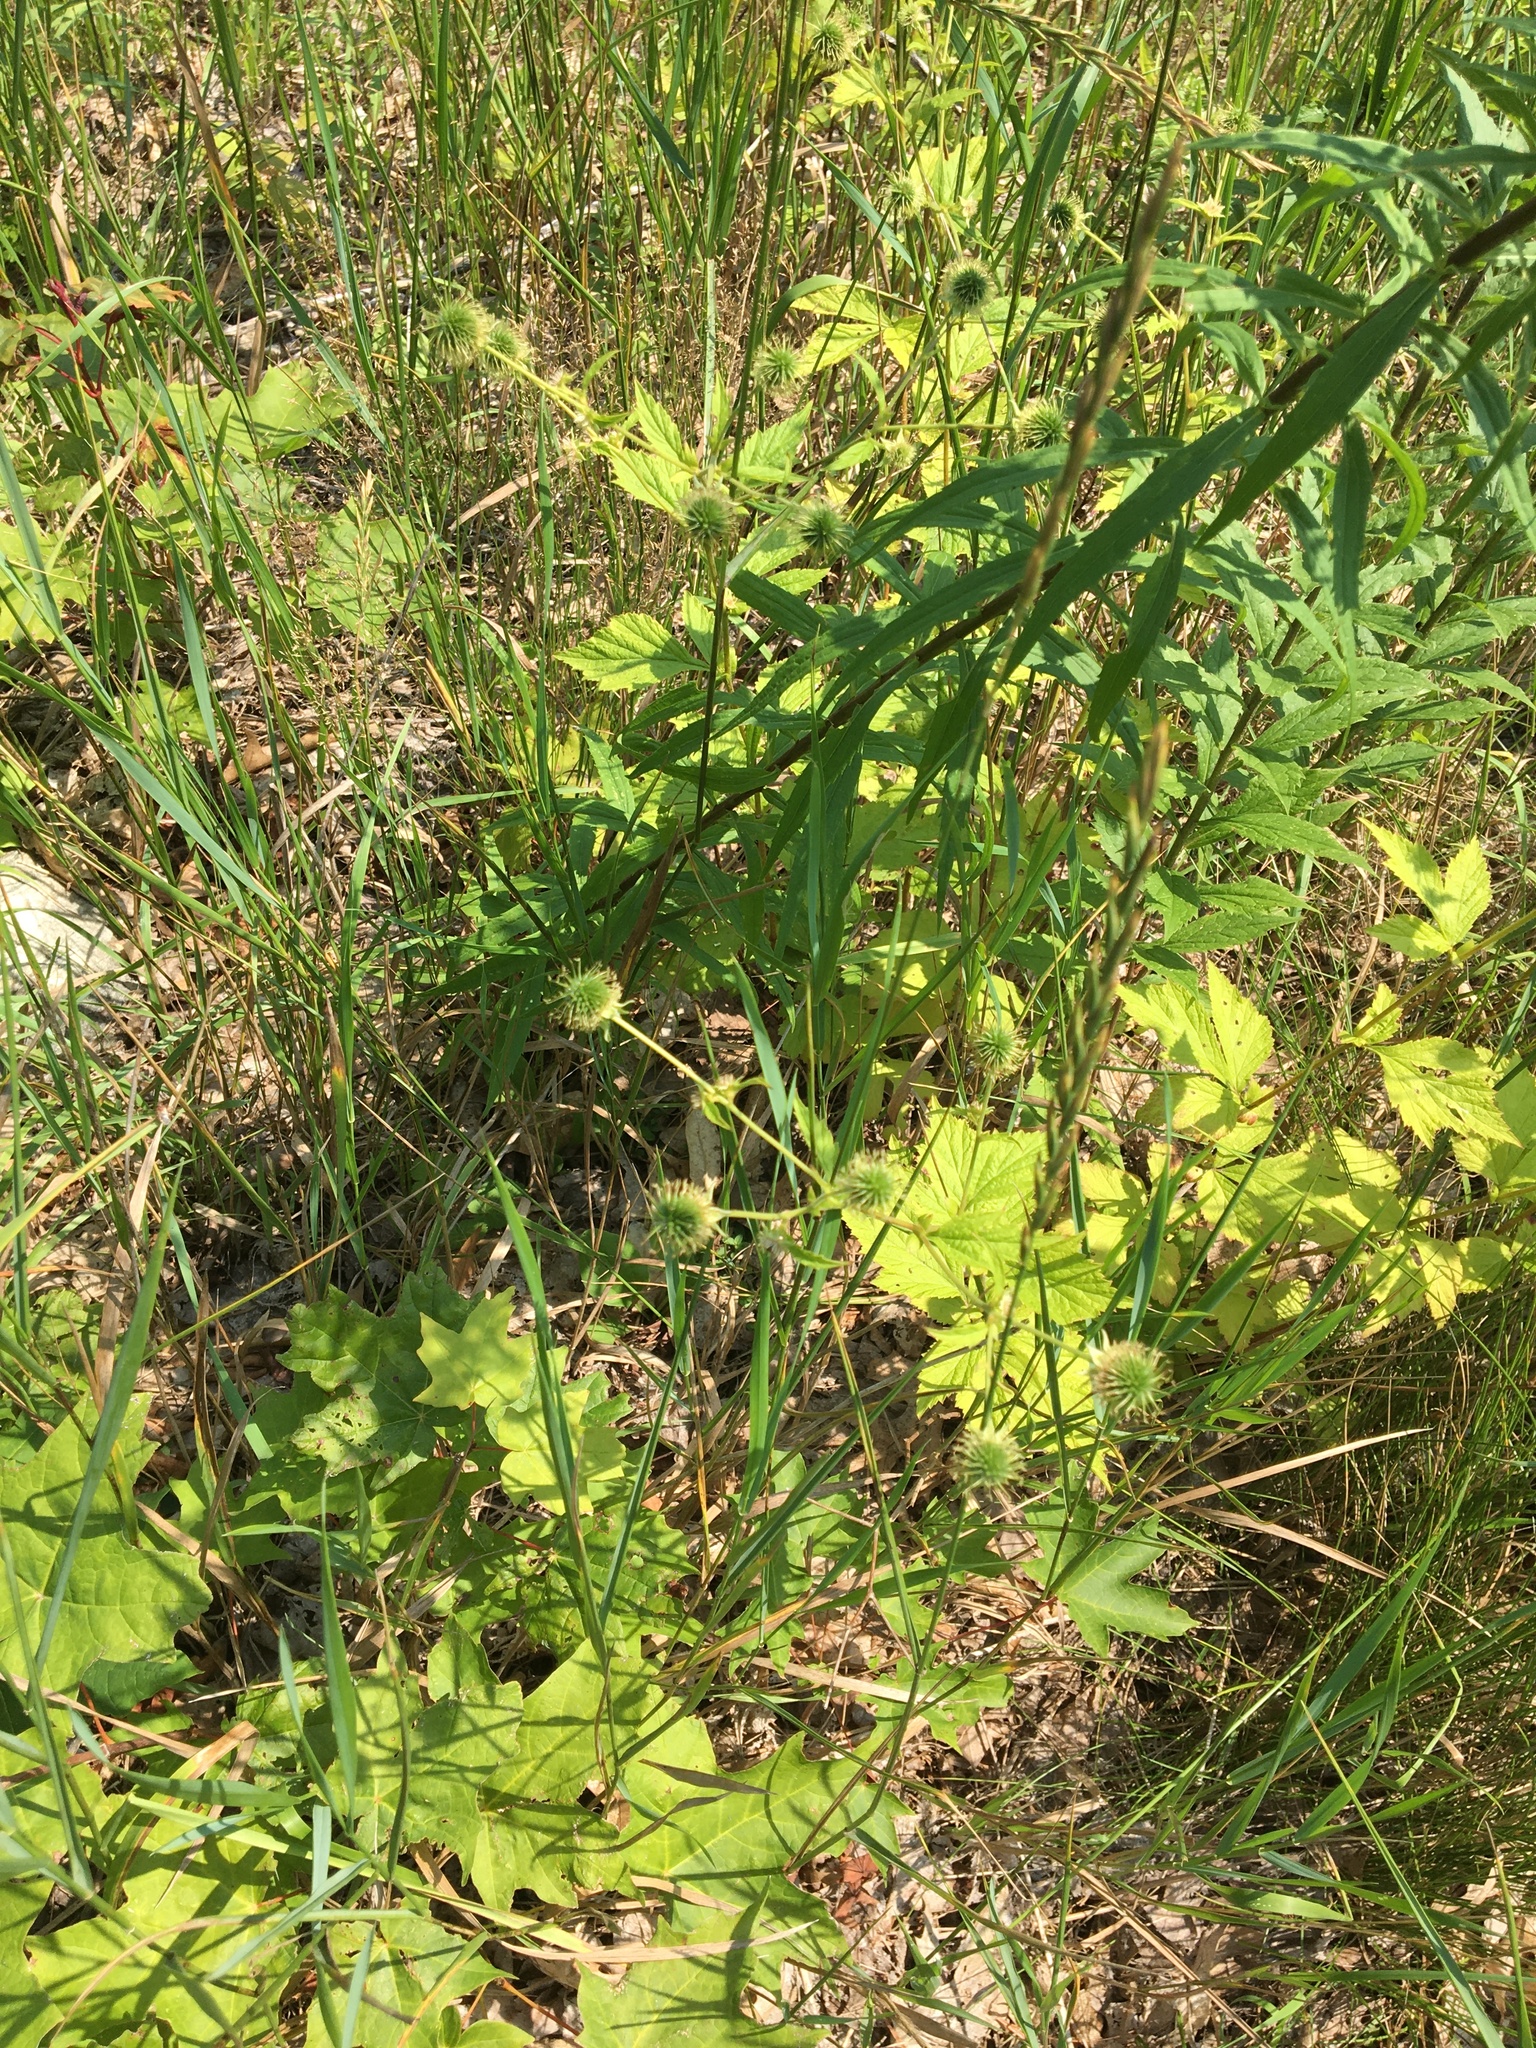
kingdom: Plantae
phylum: Tracheophyta
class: Magnoliopsida
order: Rosales
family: Rosaceae
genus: Geum
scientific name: Geum canadense
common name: White avens
